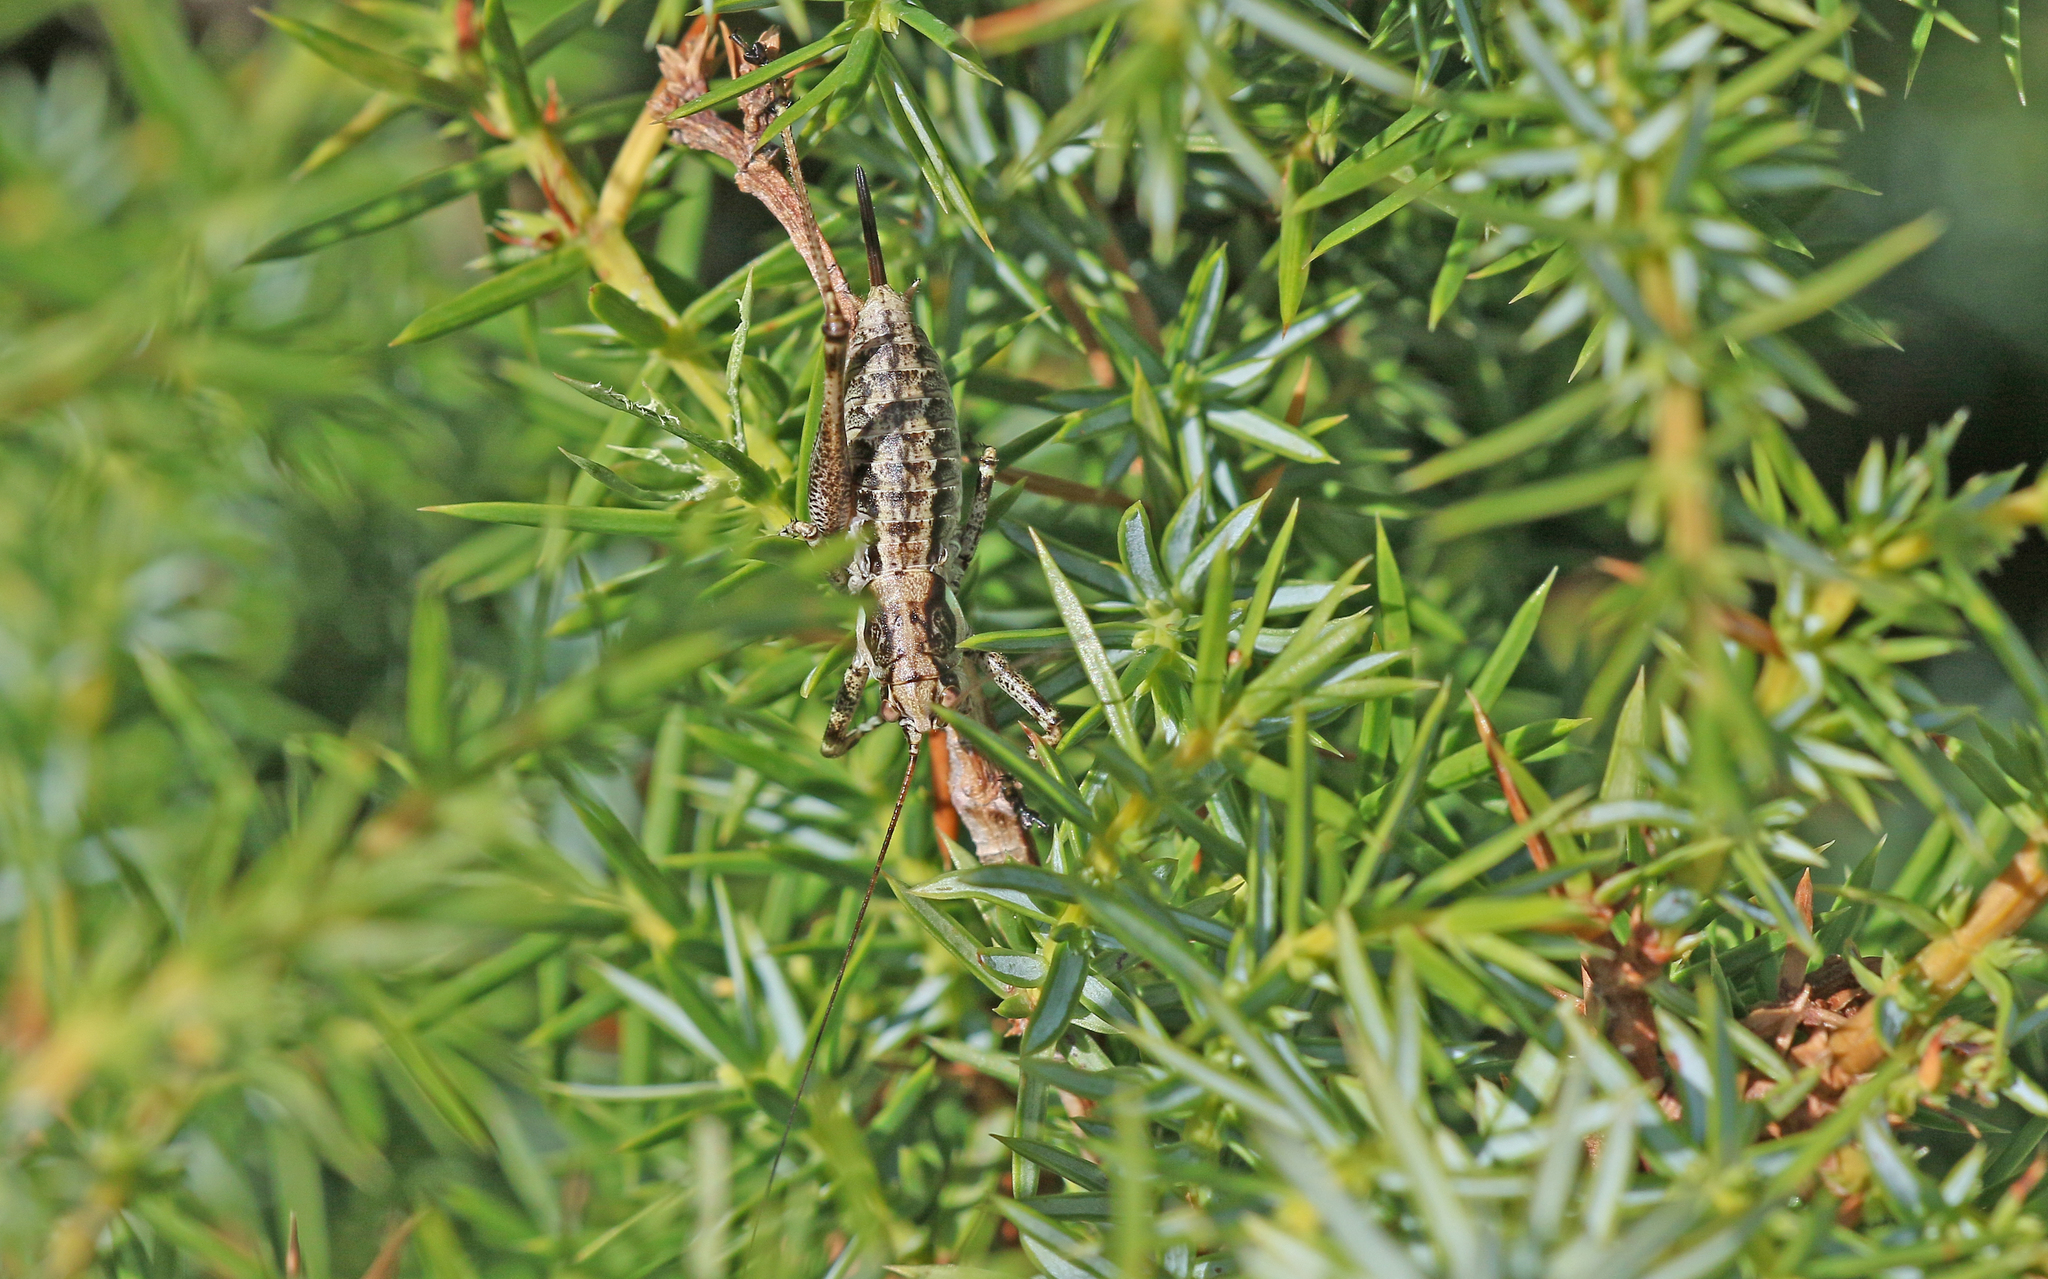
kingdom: Animalia
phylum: Arthropoda
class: Insecta
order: Orthoptera
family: Tettigoniidae
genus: Antaxius
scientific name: Antaxius pedestris
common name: Common mountain bush-cricket
